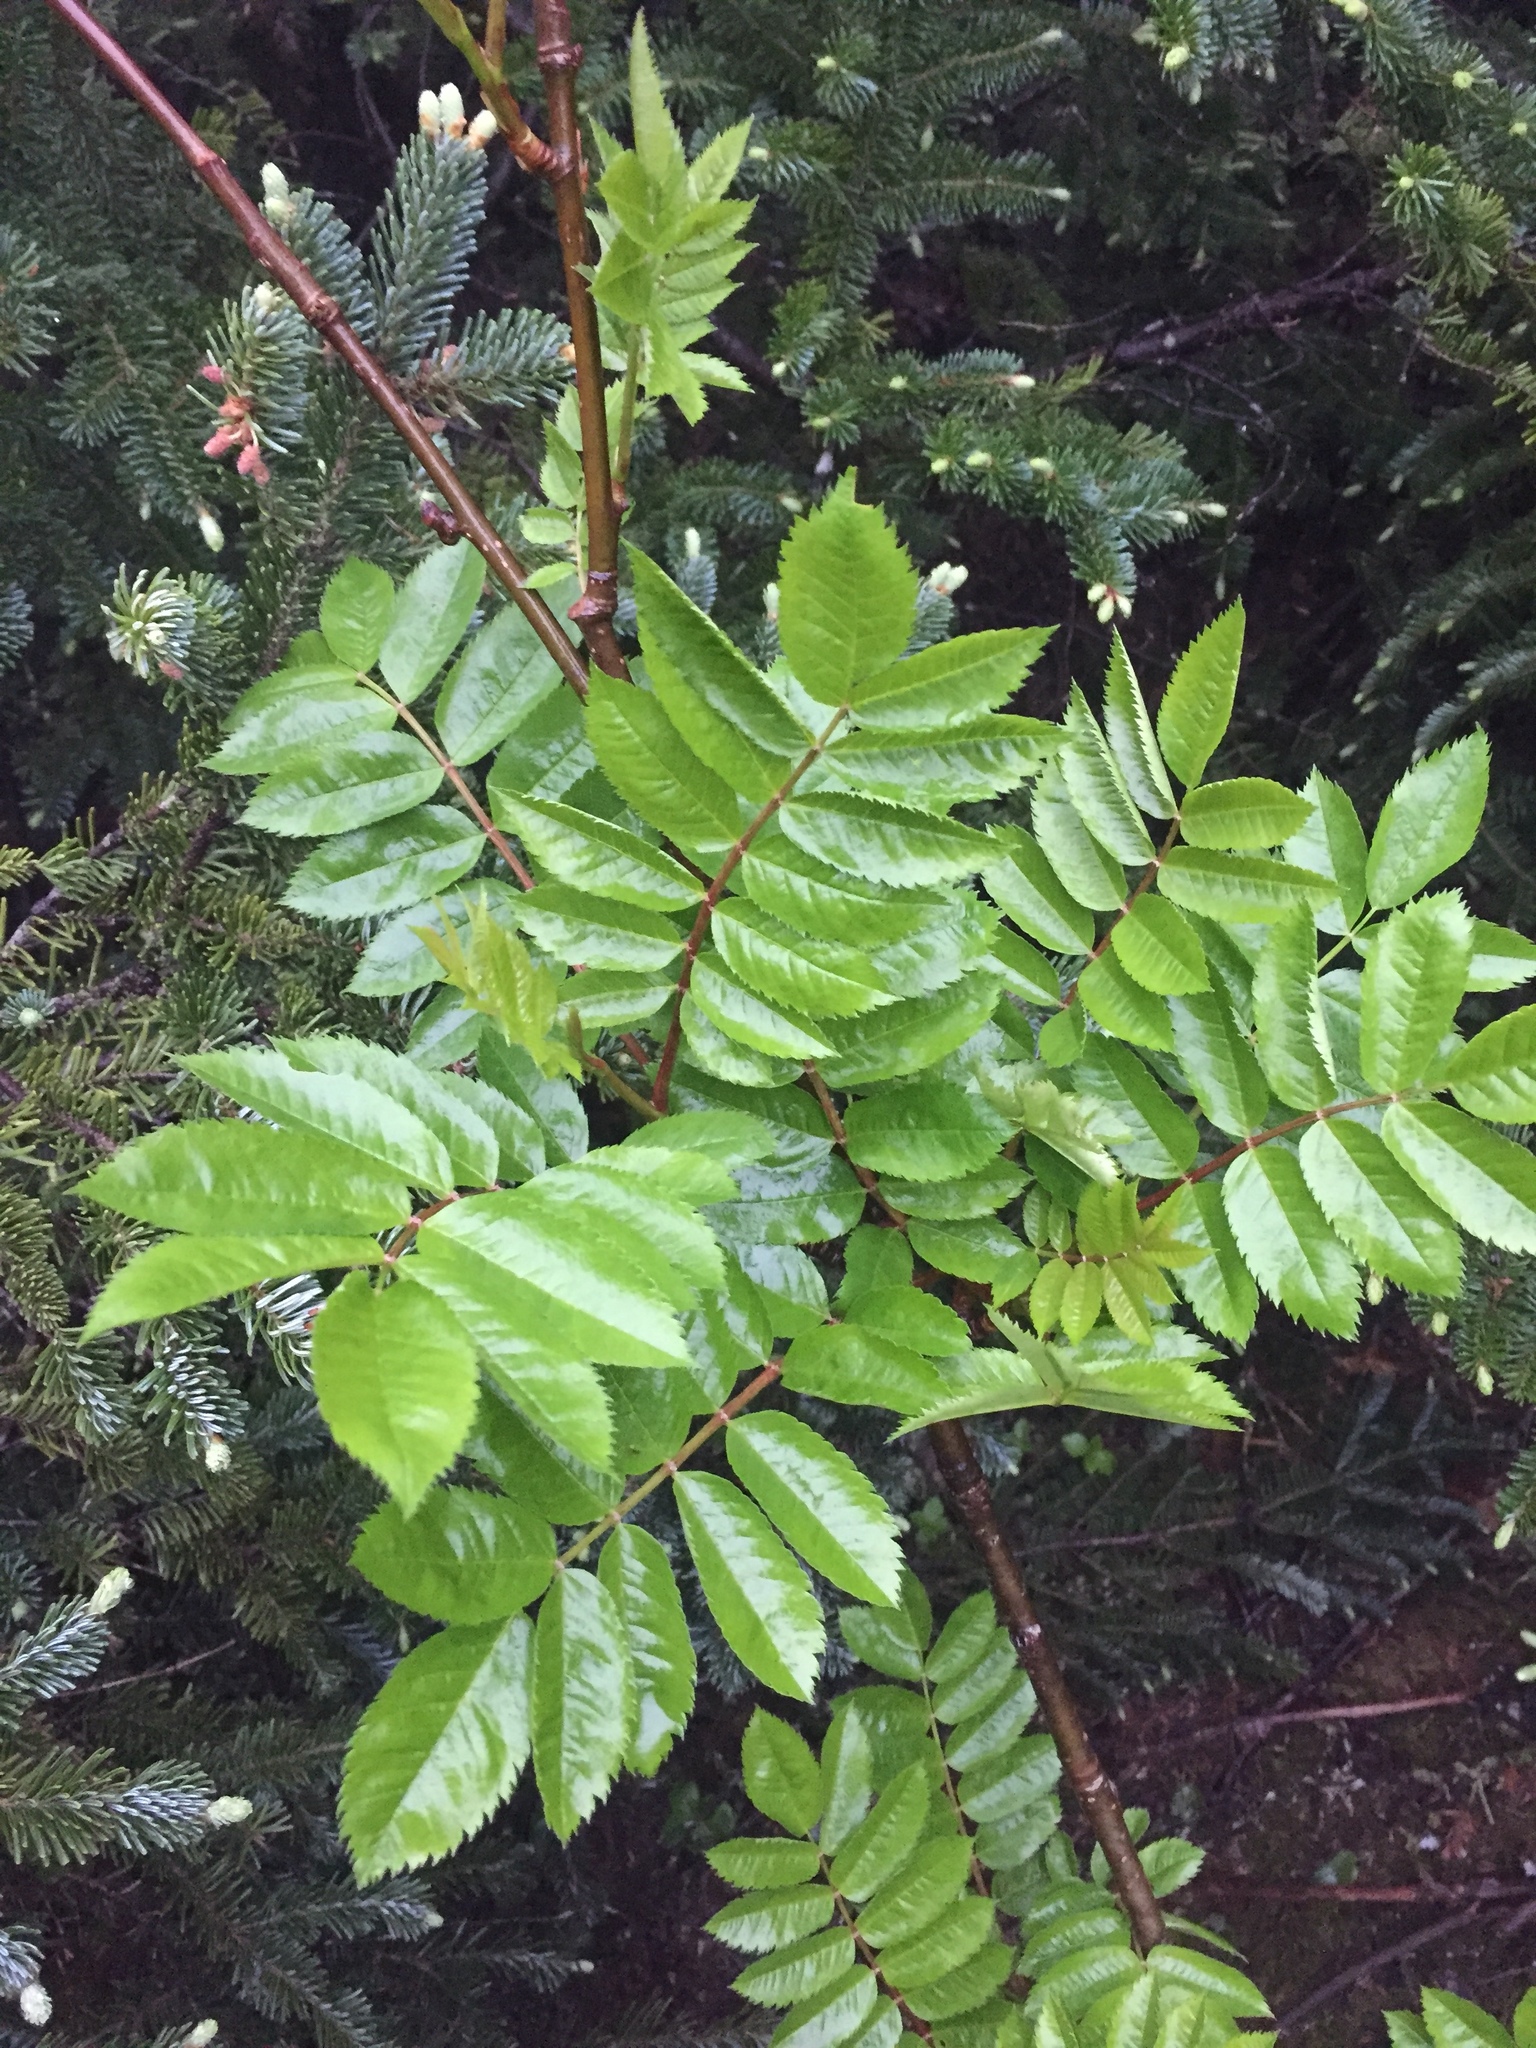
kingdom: Plantae
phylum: Tracheophyta
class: Magnoliopsida
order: Rosales
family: Rosaceae
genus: Sorbus
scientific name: Sorbus decora
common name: Northern mountain-ash
